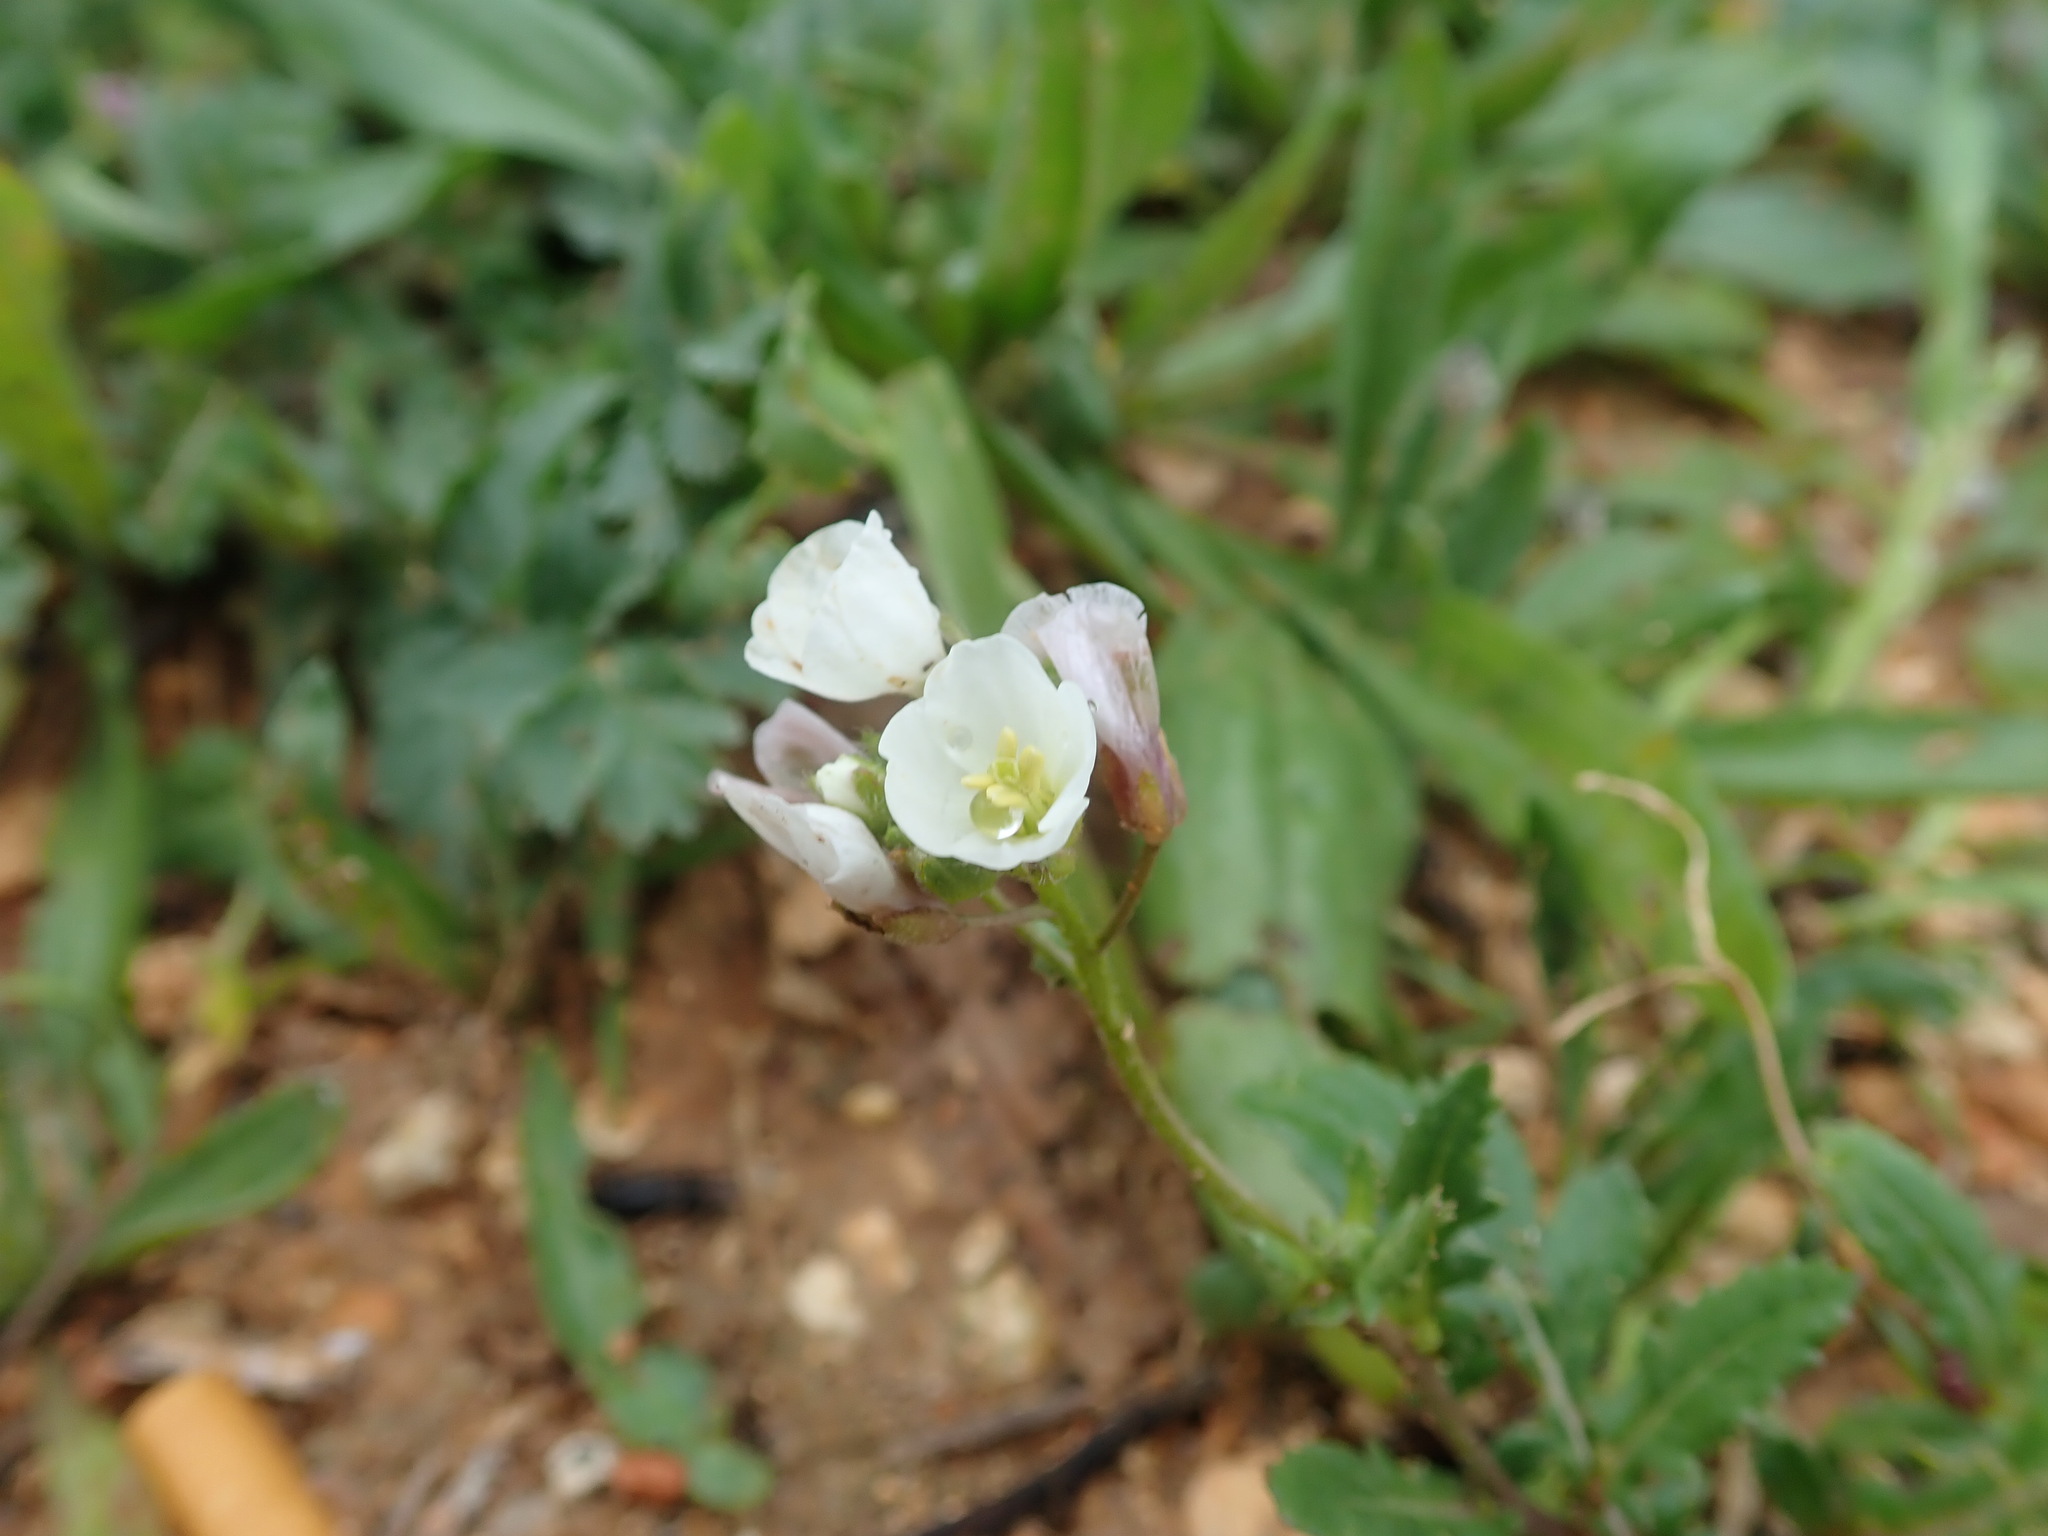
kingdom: Plantae
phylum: Tracheophyta
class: Magnoliopsida
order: Brassicales
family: Brassicaceae
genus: Diplotaxis
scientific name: Diplotaxis erucoides
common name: White rocket
